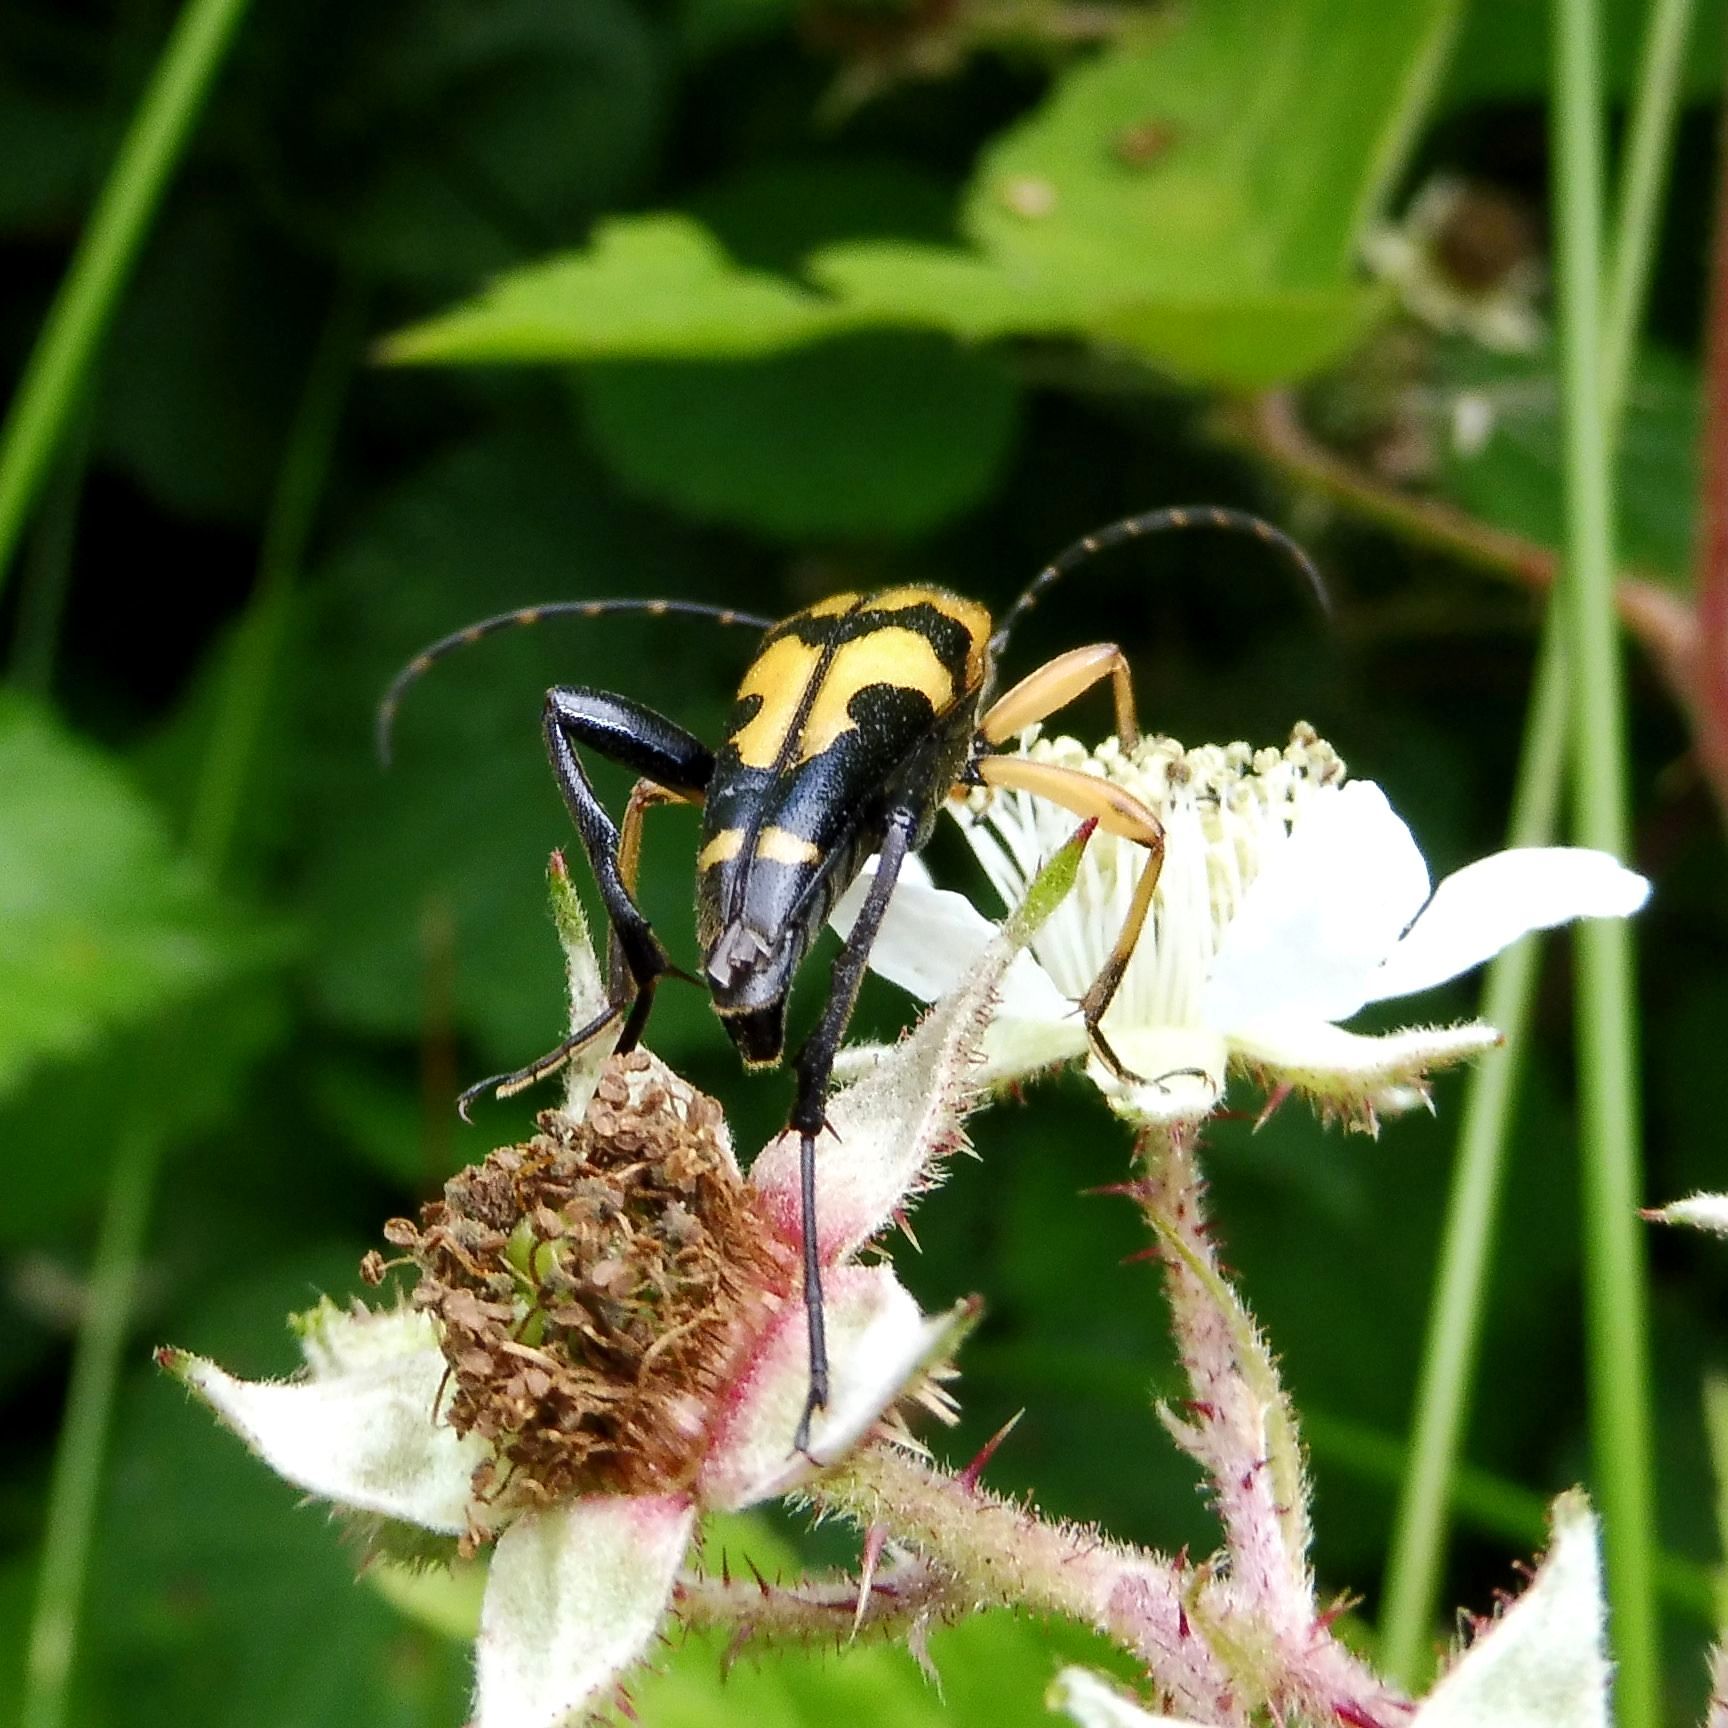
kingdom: Animalia
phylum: Arthropoda
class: Insecta
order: Coleoptera
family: Cerambycidae
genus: Rutpela
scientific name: Rutpela maculata
